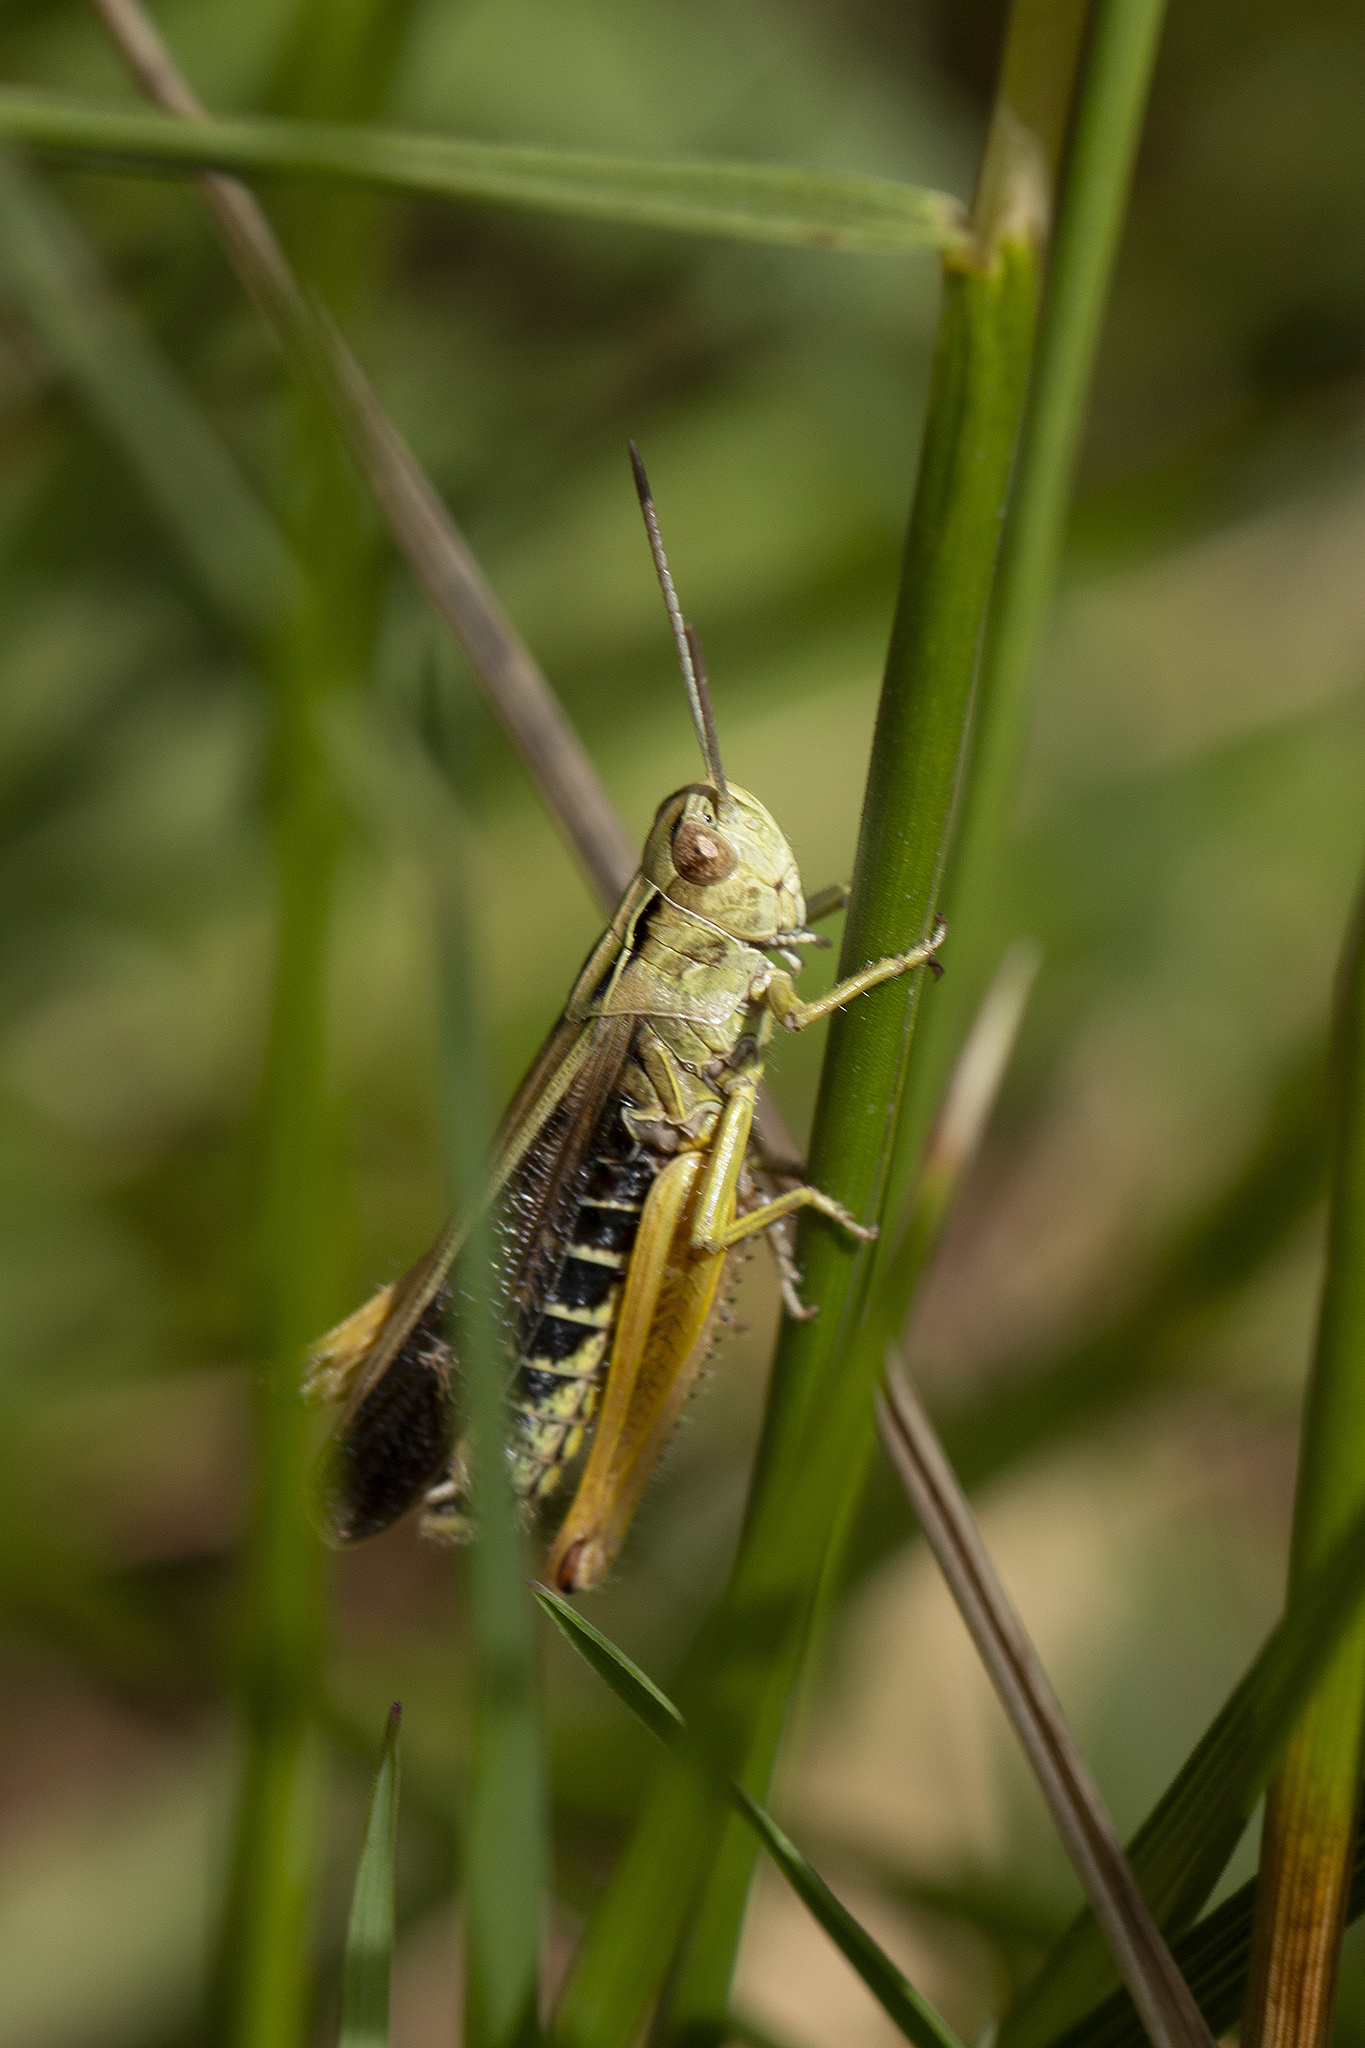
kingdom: Animalia
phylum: Arthropoda
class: Insecta
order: Orthoptera
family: Acrididae
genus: Omocestus
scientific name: Omocestus viridulus
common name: Common green grasshopper
